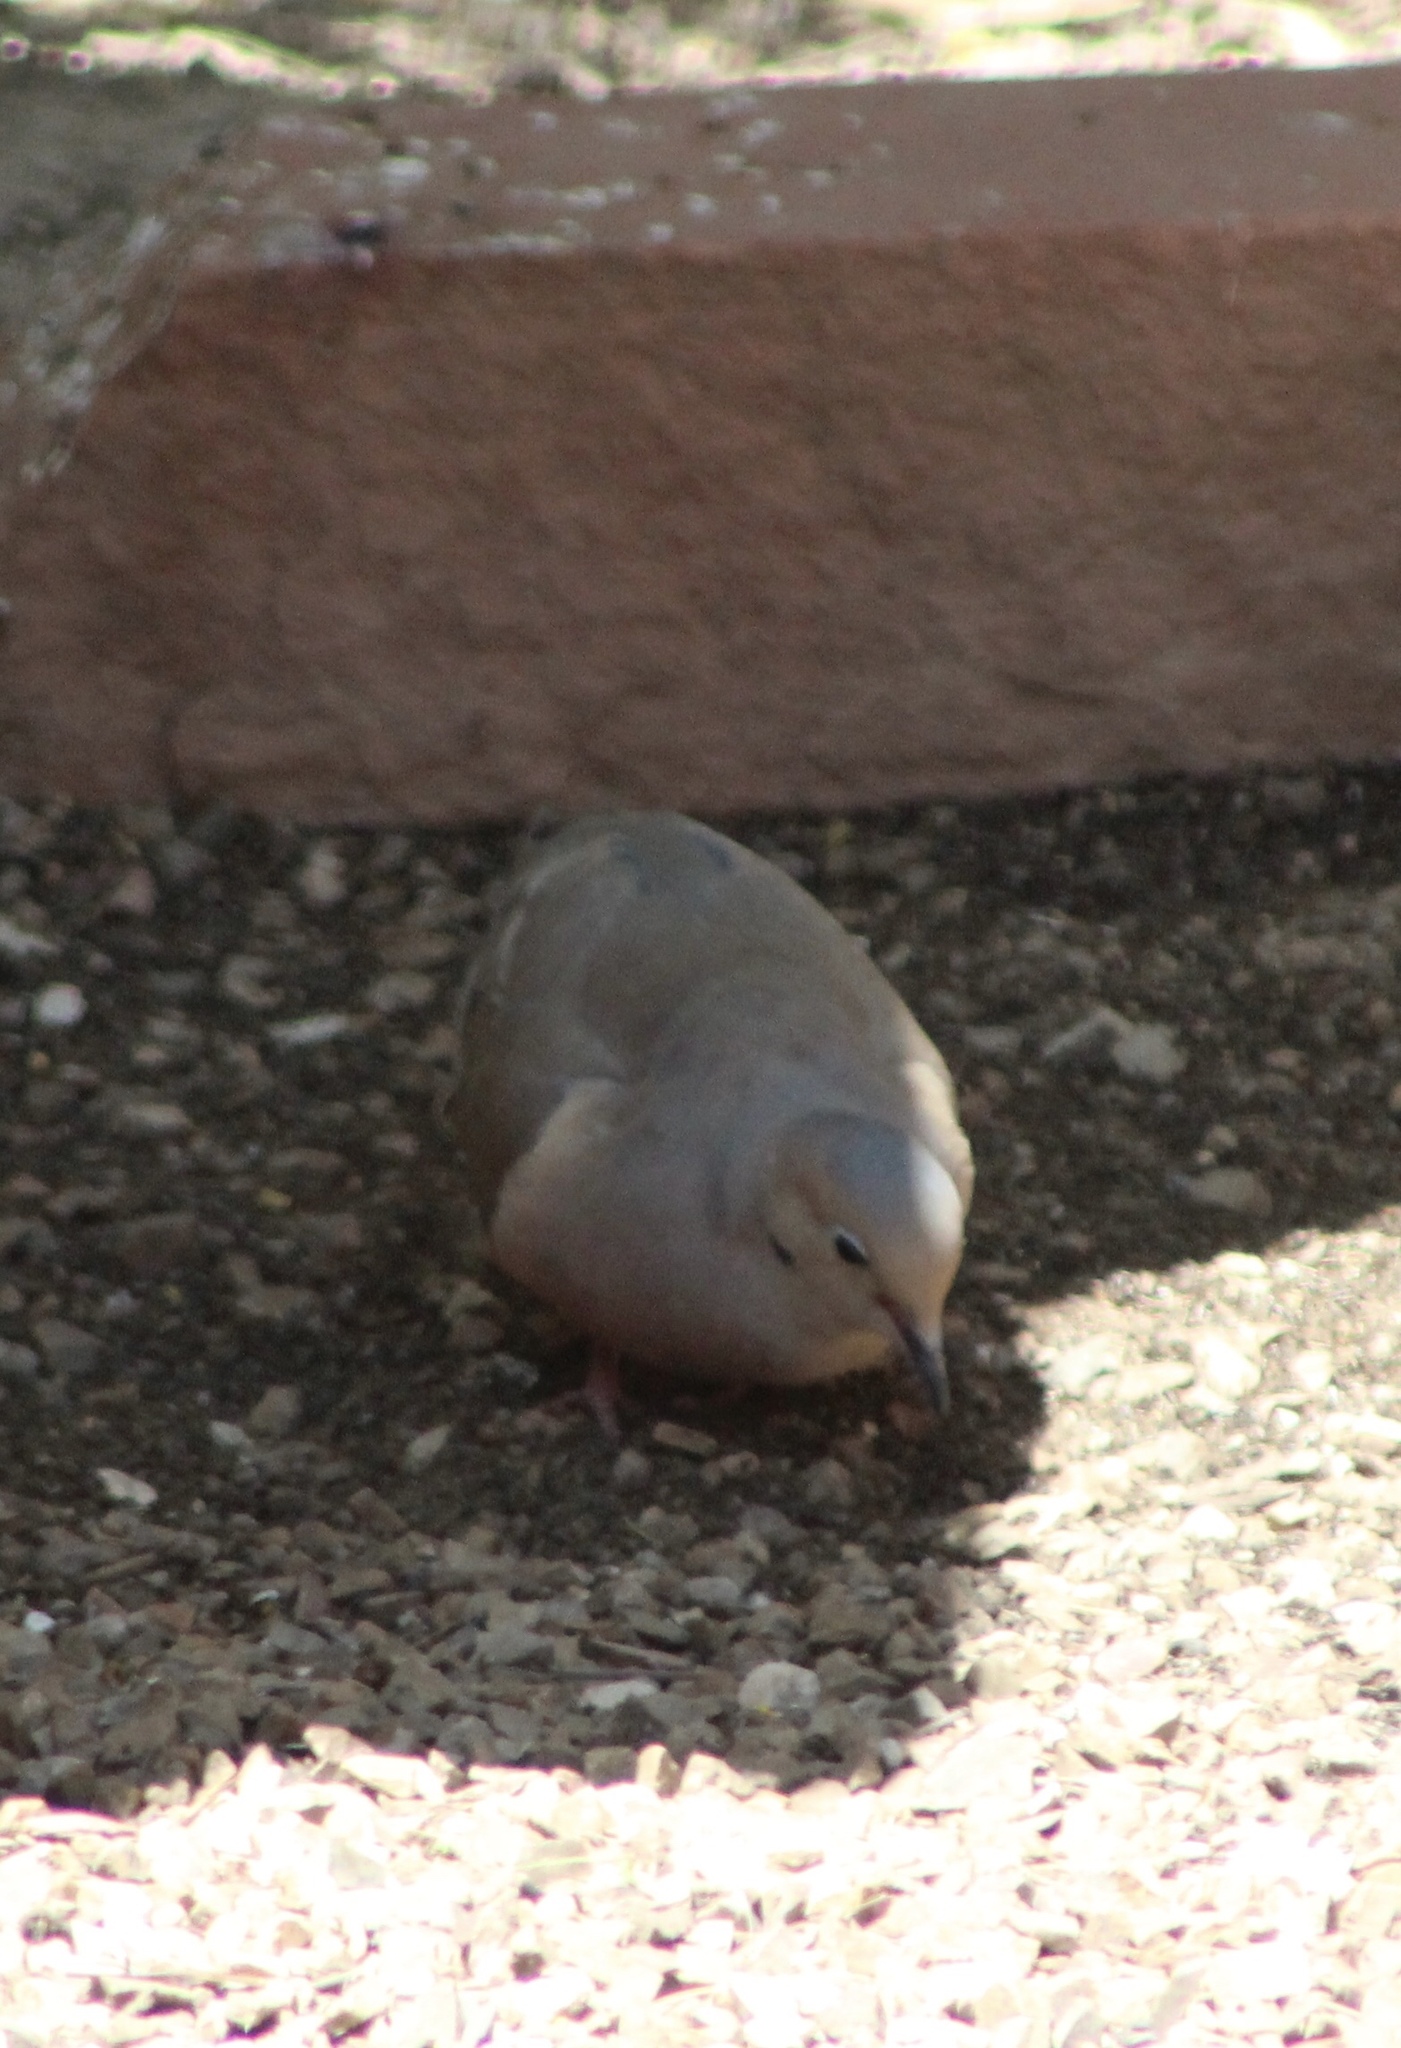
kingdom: Animalia
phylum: Chordata
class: Aves
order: Columbiformes
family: Columbidae
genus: Zenaida
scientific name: Zenaida macroura
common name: Mourning dove
